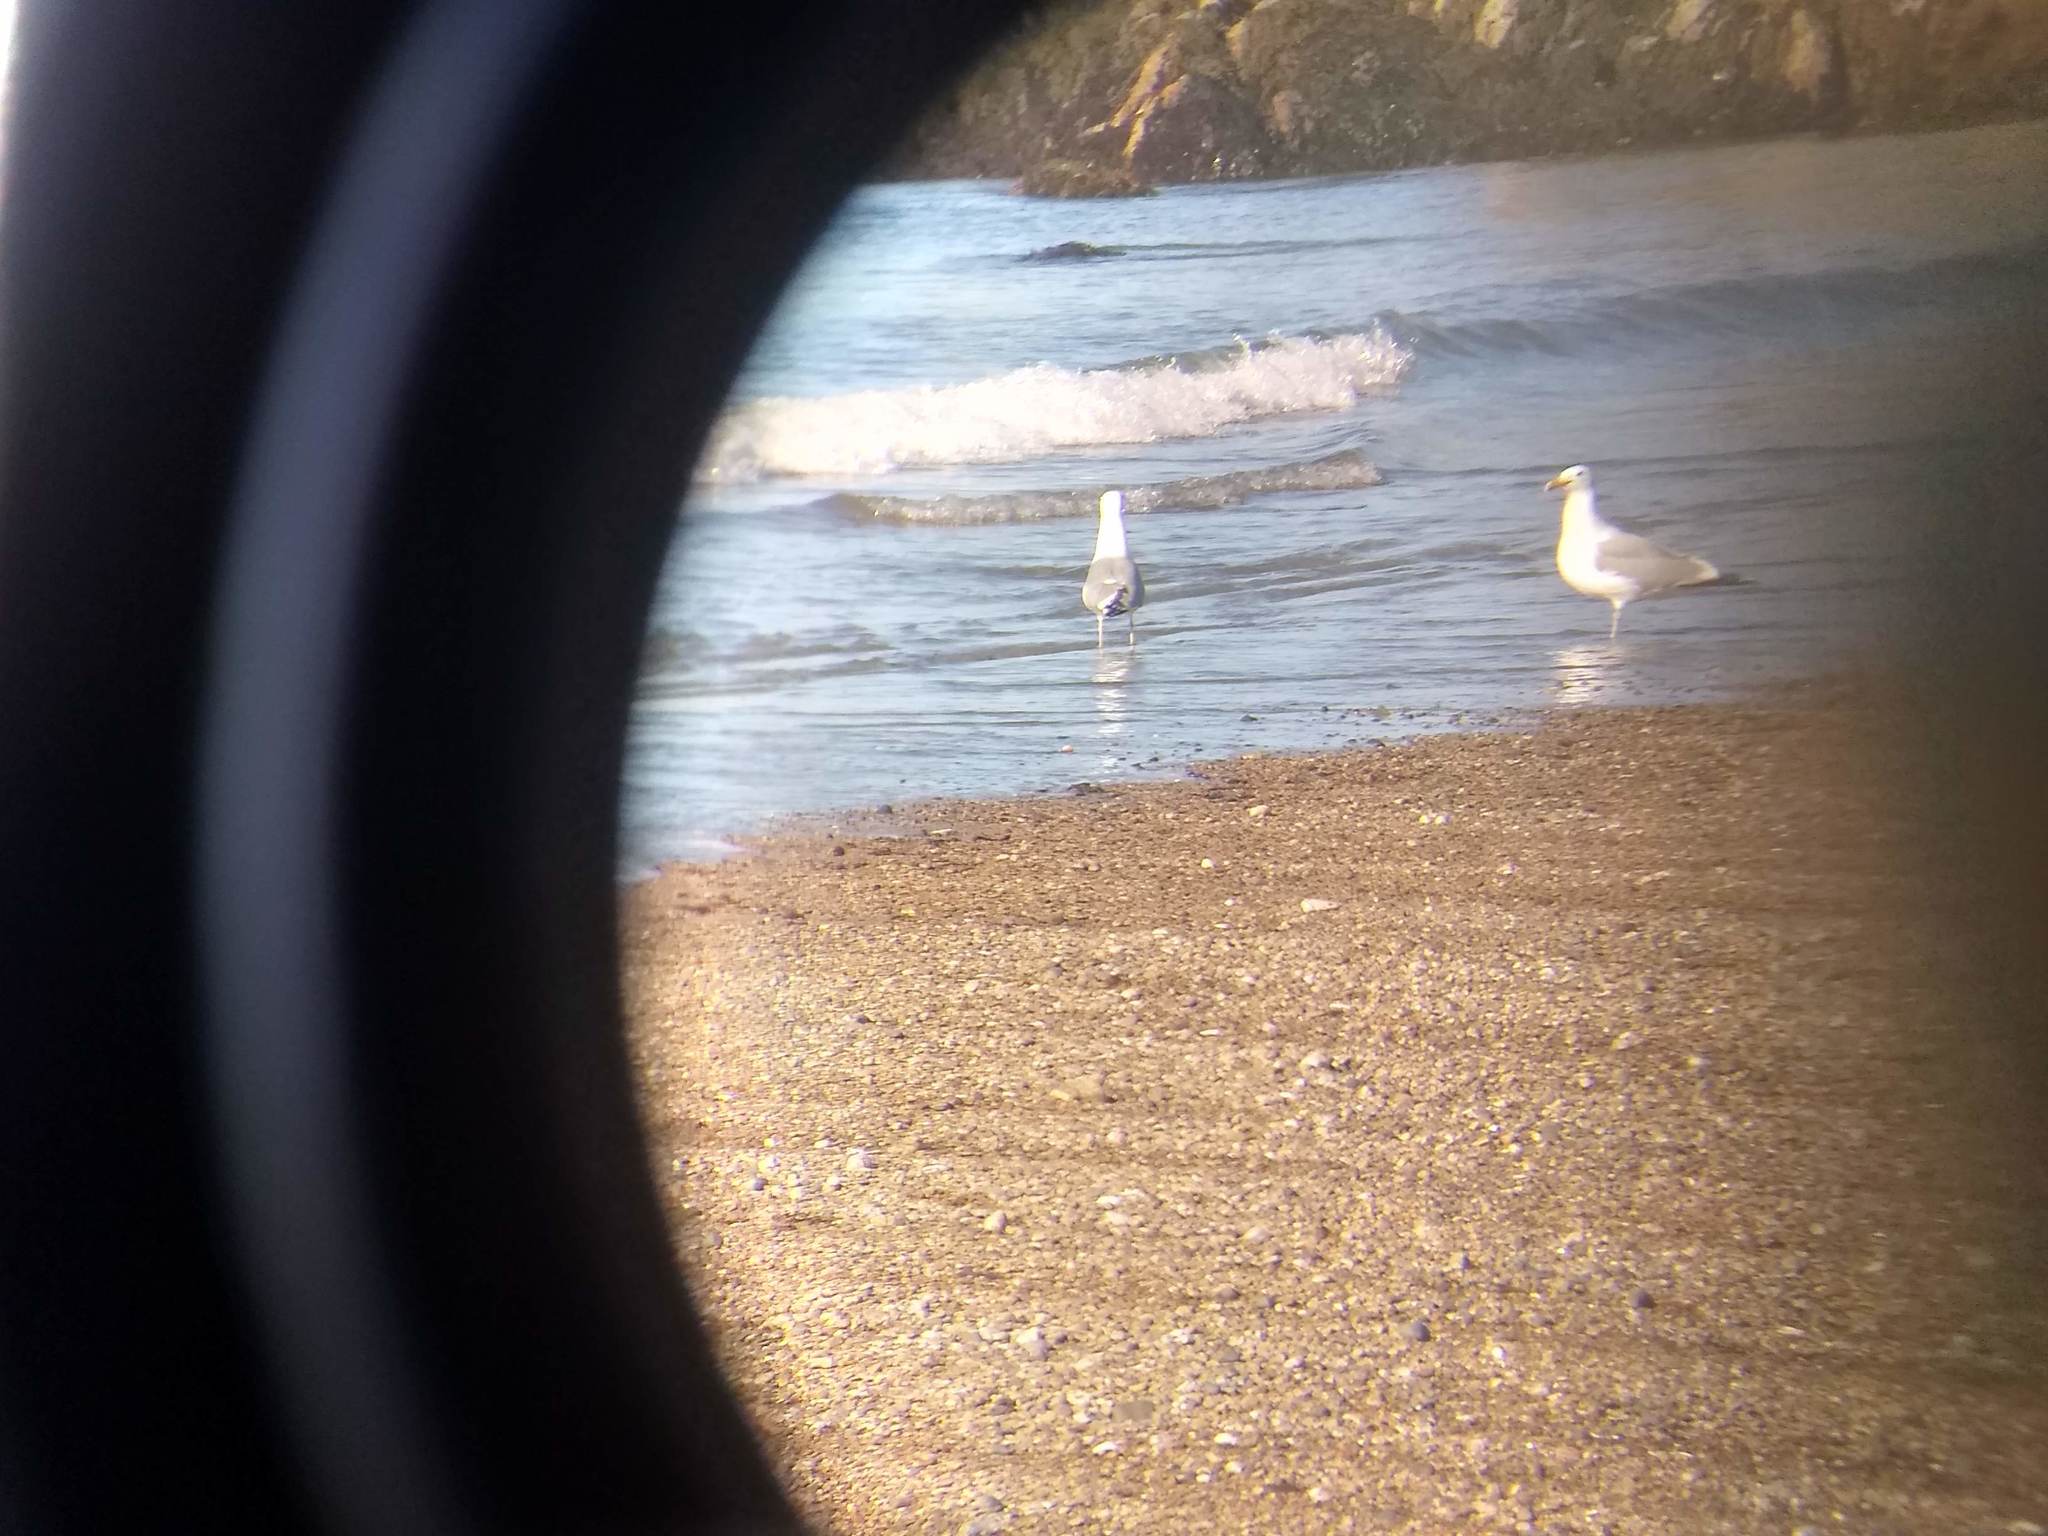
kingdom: Animalia
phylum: Chordata
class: Aves
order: Charadriiformes
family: Laridae
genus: Larus
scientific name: Larus argentatus
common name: Herring gull
